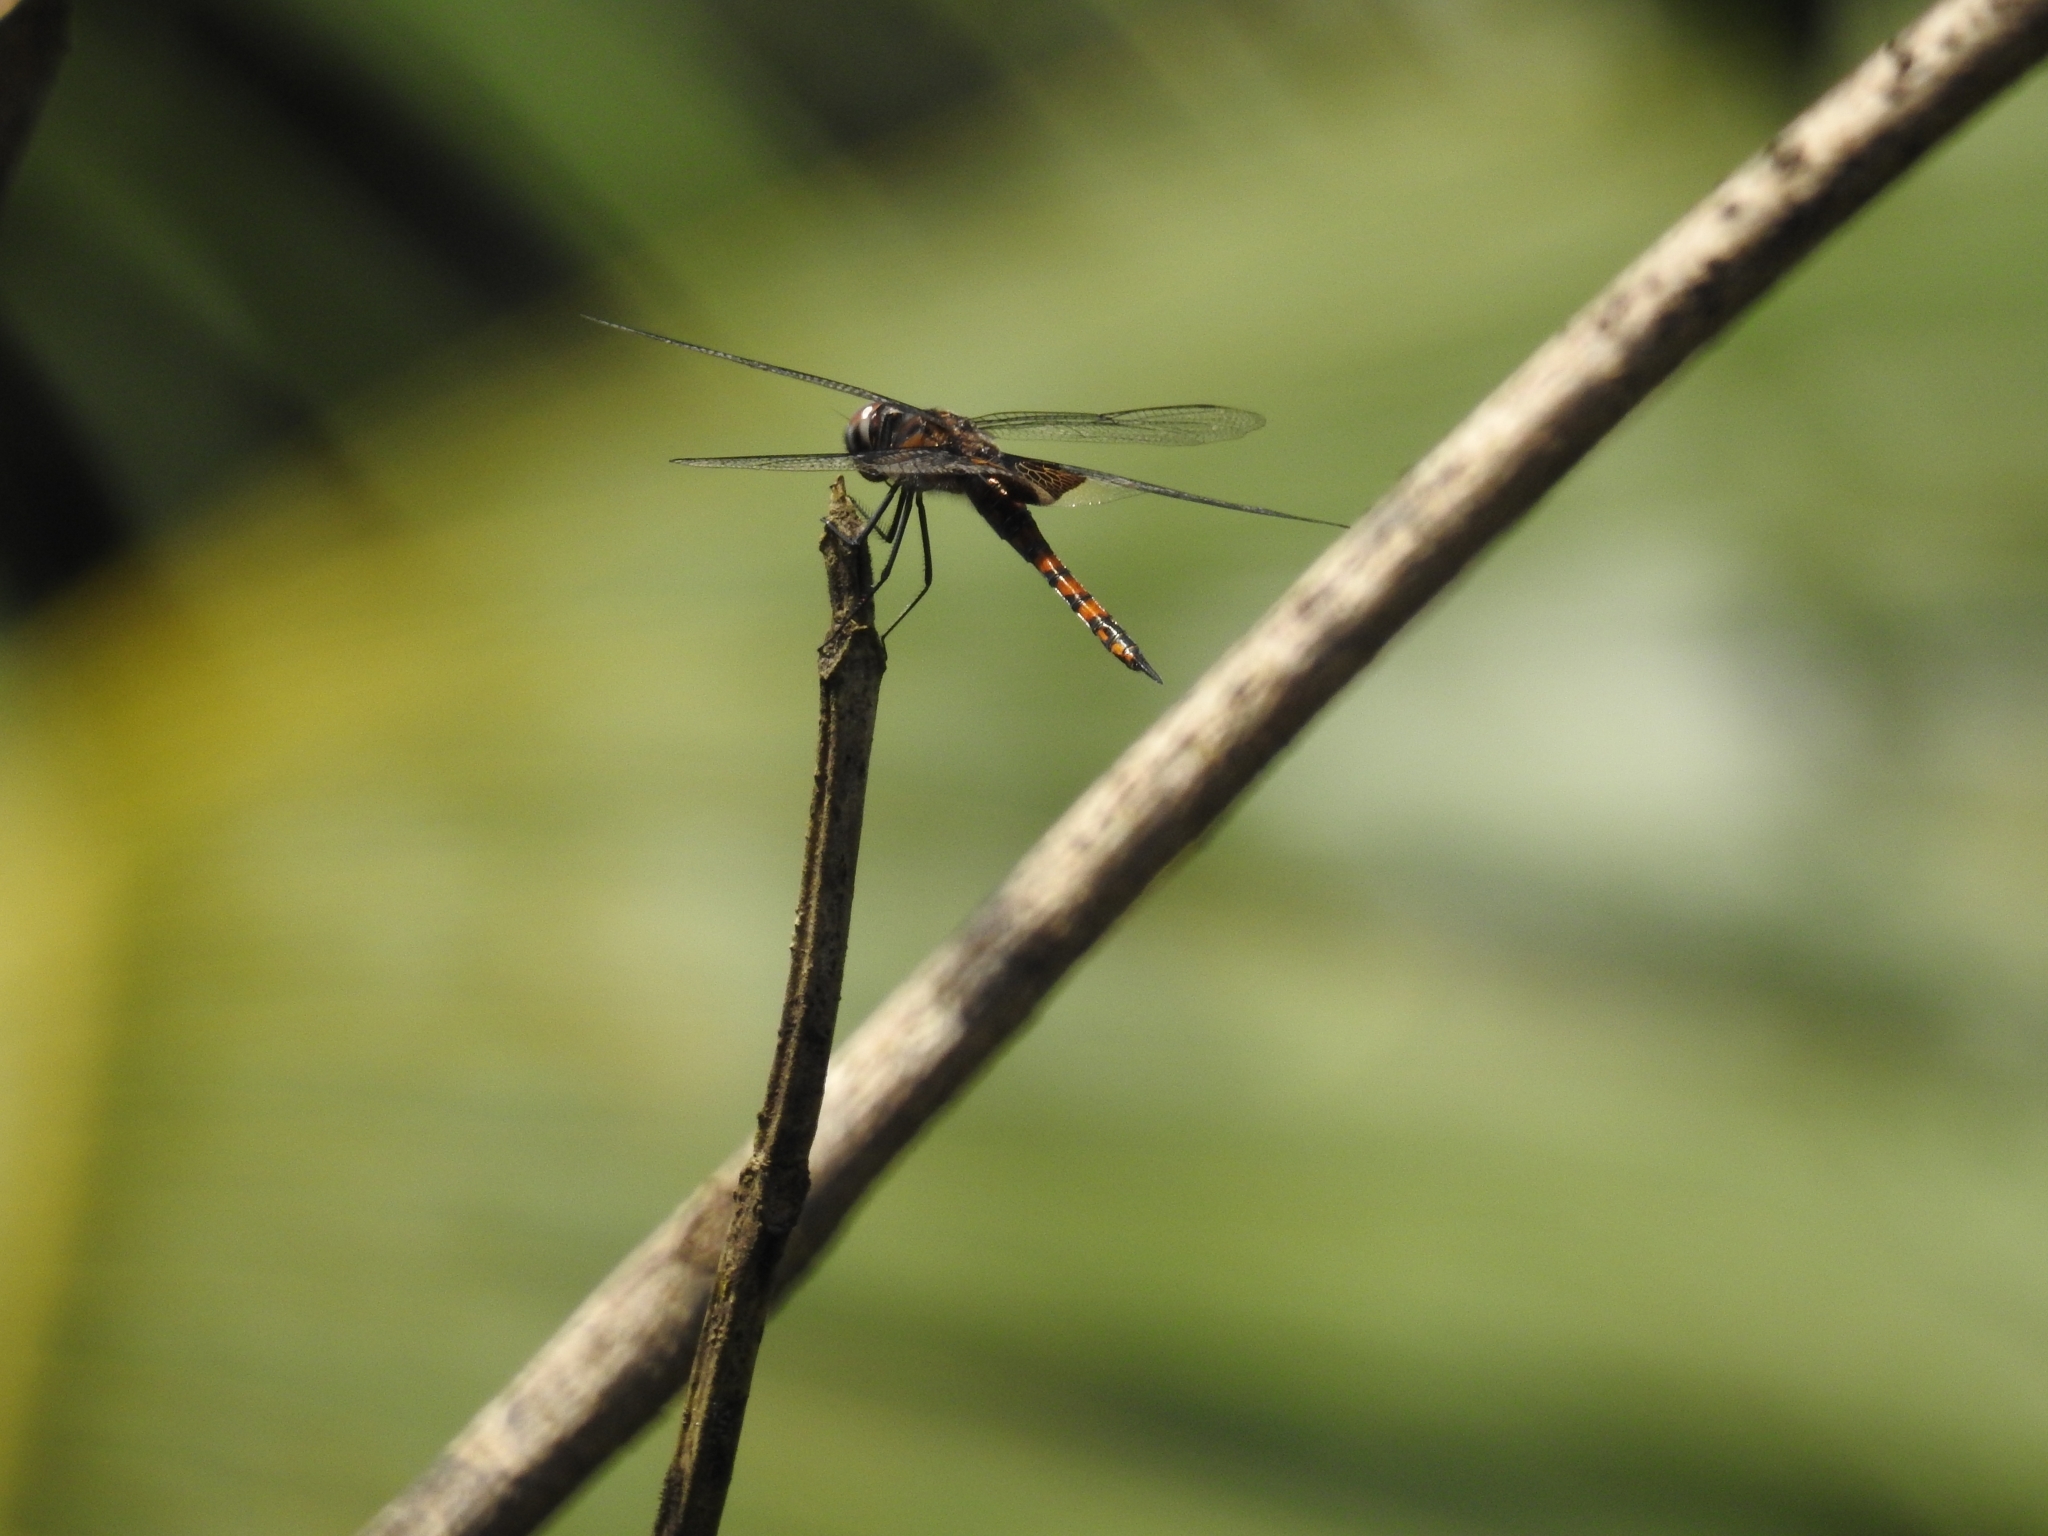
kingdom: Animalia
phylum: Arthropoda
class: Insecta
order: Odonata
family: Libellulidae
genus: Tramea
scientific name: Tramea limbata
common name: Ferruginous glider
